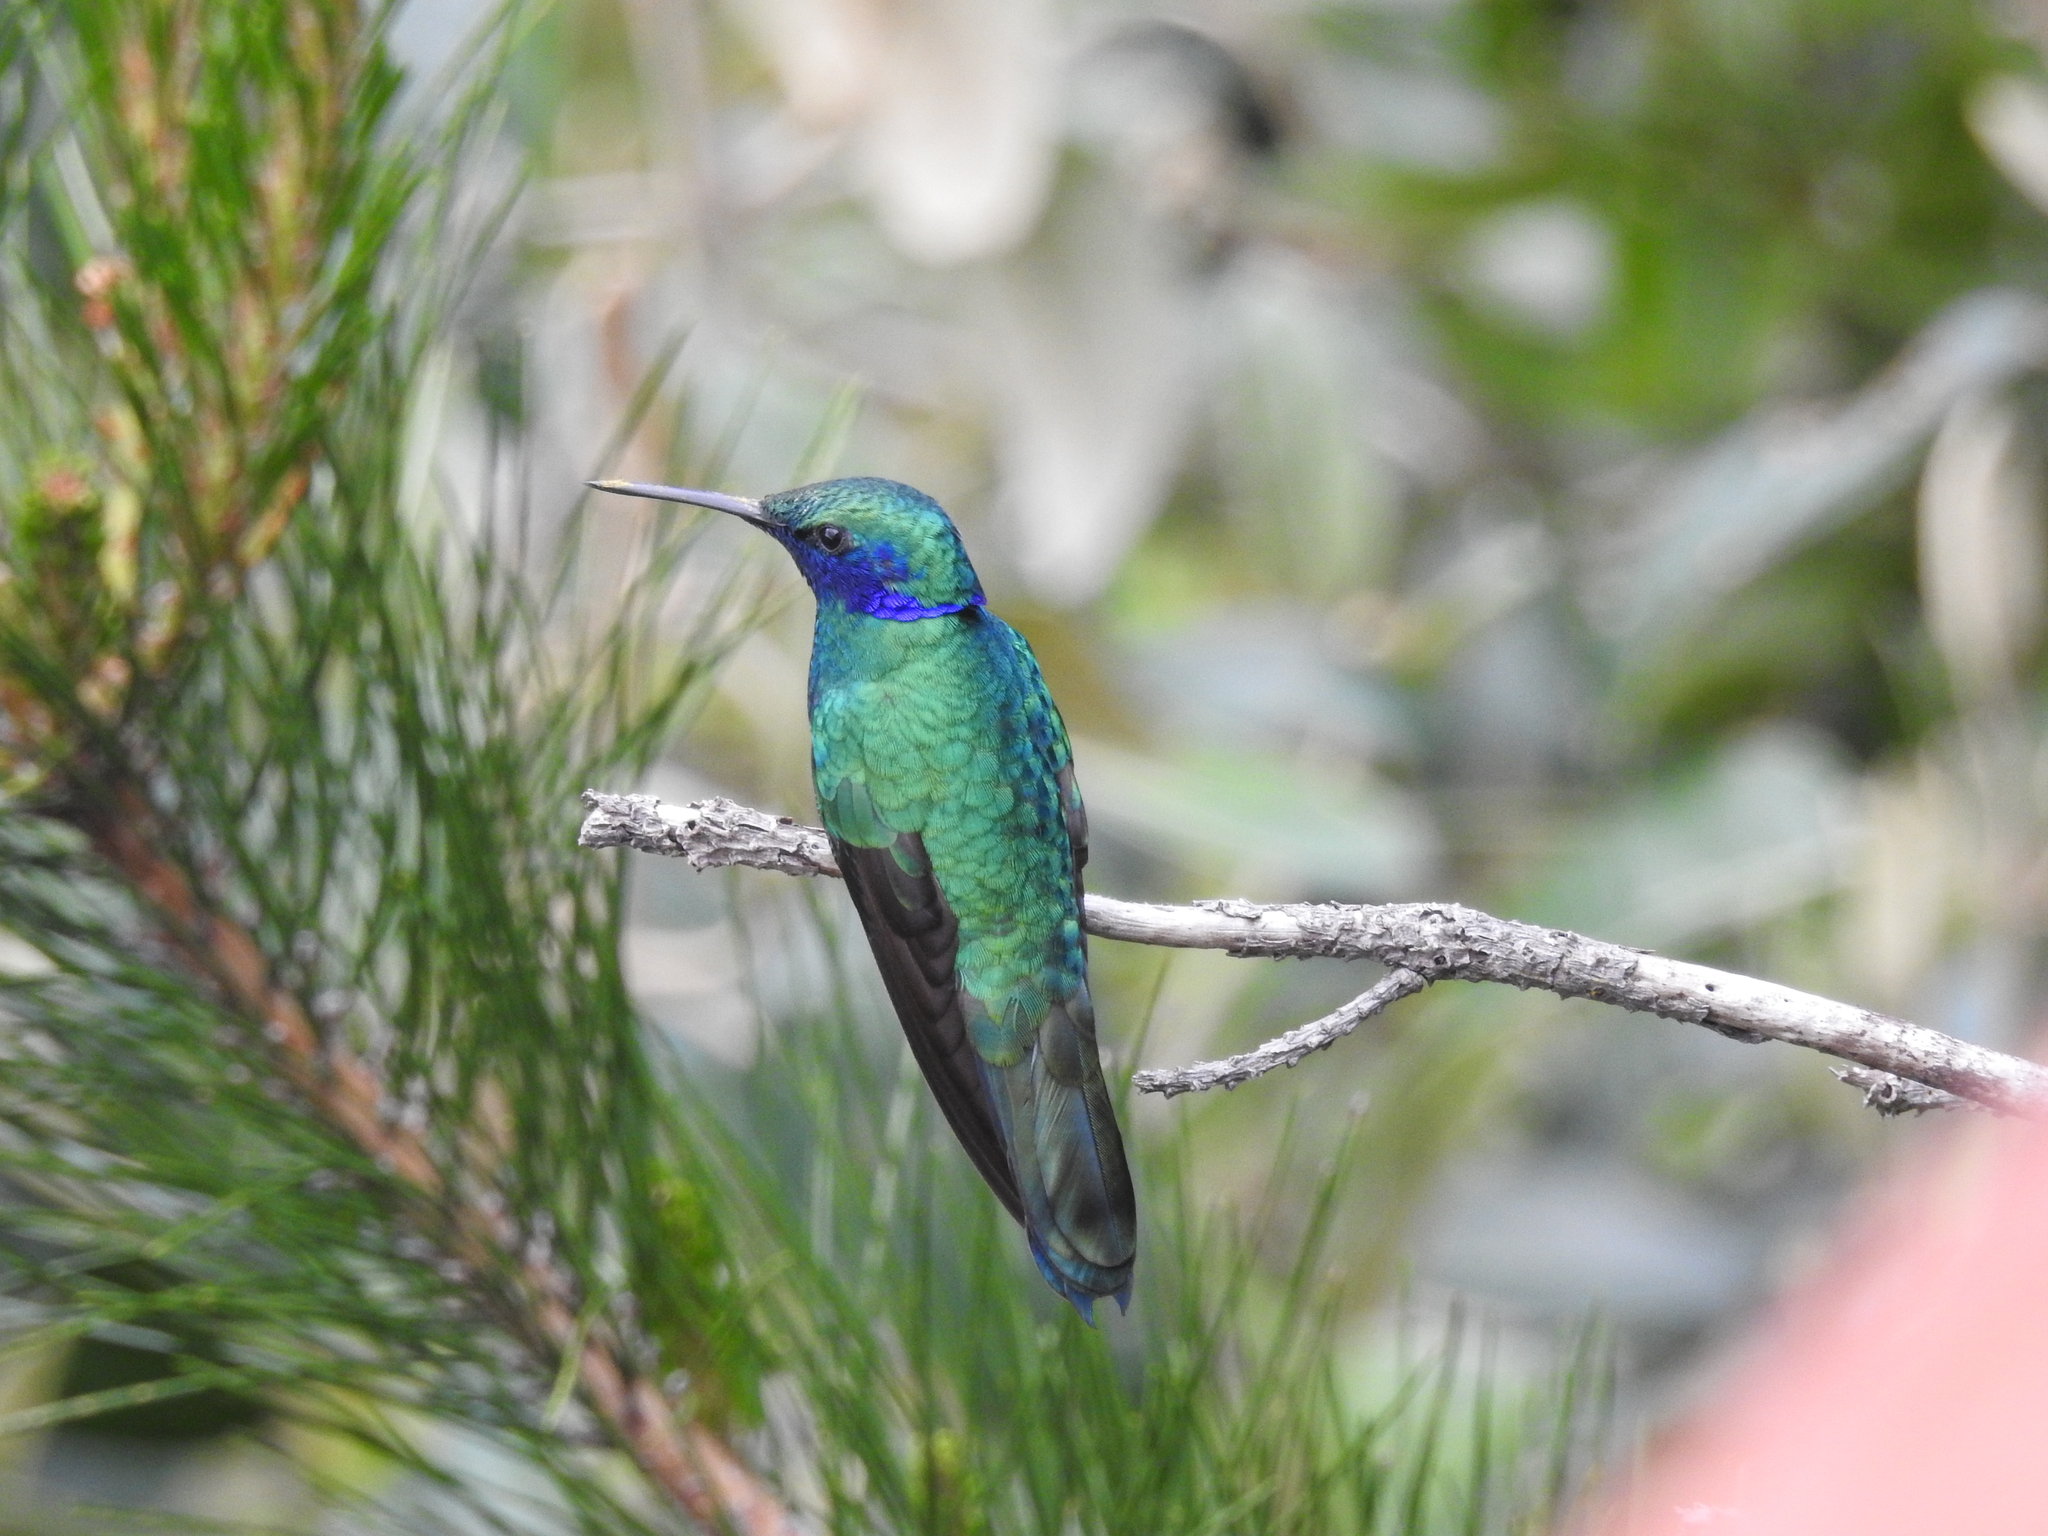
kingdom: Animalia
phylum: Chordata
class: Aves
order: Apodiformes
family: Trochilidae
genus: Colibri
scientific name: Colibri coruscans
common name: Sparkling violetear
